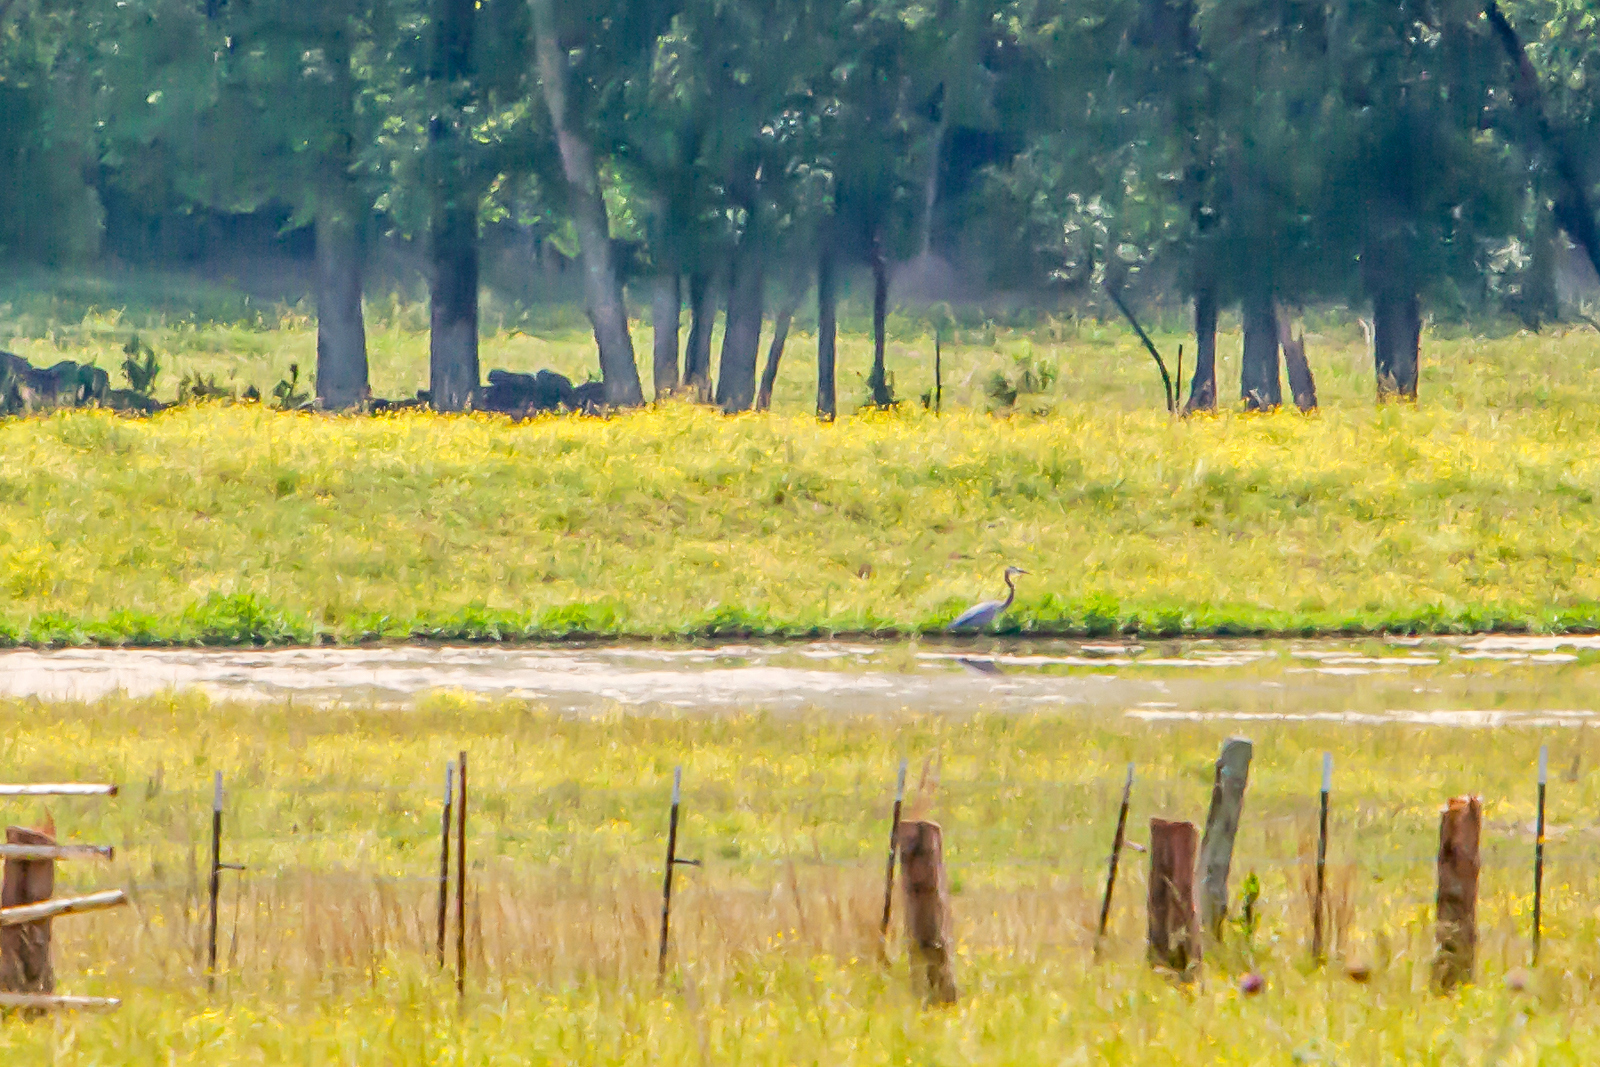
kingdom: Animalia
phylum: Chordata
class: Aves
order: Pelecaniformes
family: Ardeidae
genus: Ardea
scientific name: Ardea herodias
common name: Great blue heron
